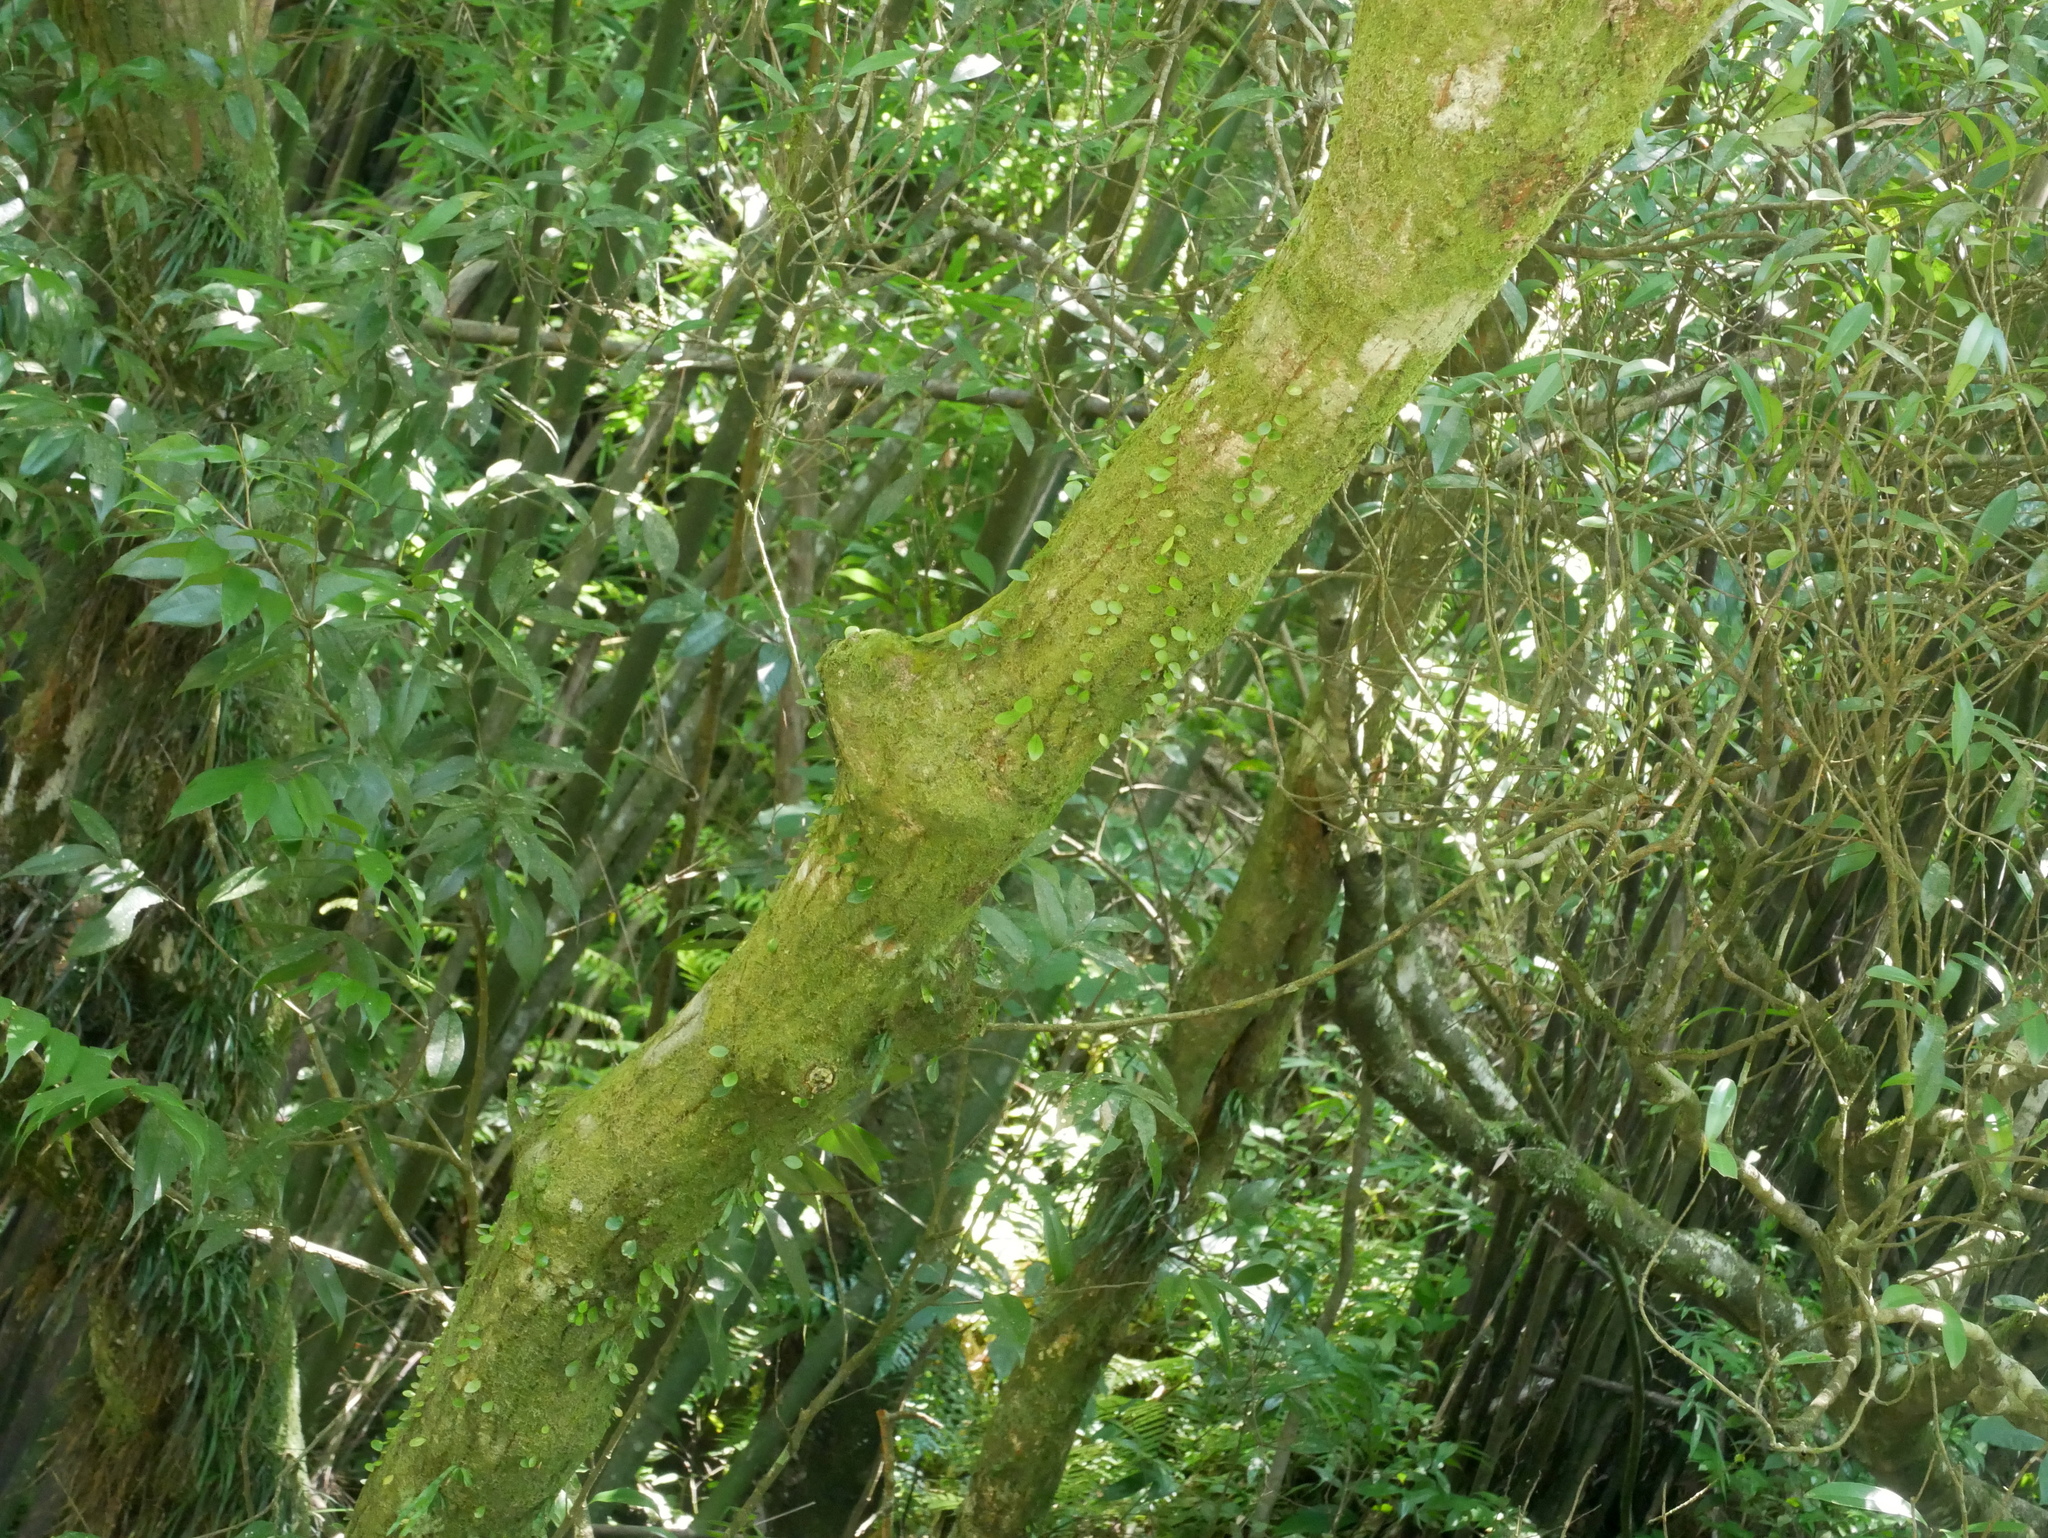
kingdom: Plantae
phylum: Tracheophyta
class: Magnoliopsida
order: Fagales
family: Fagaceae
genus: Lithocarpus
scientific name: Lithocarpus uraianus
